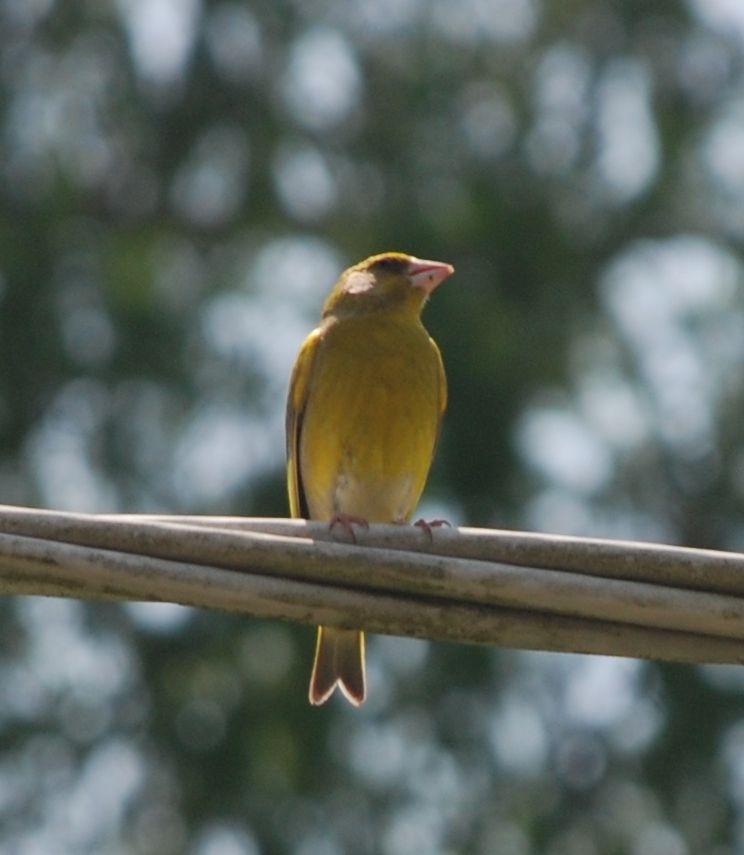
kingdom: Plantae
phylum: Tracheophyta
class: Liliopsida
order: Poales
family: Poaceae
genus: Chloris
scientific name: Chloris chloris
